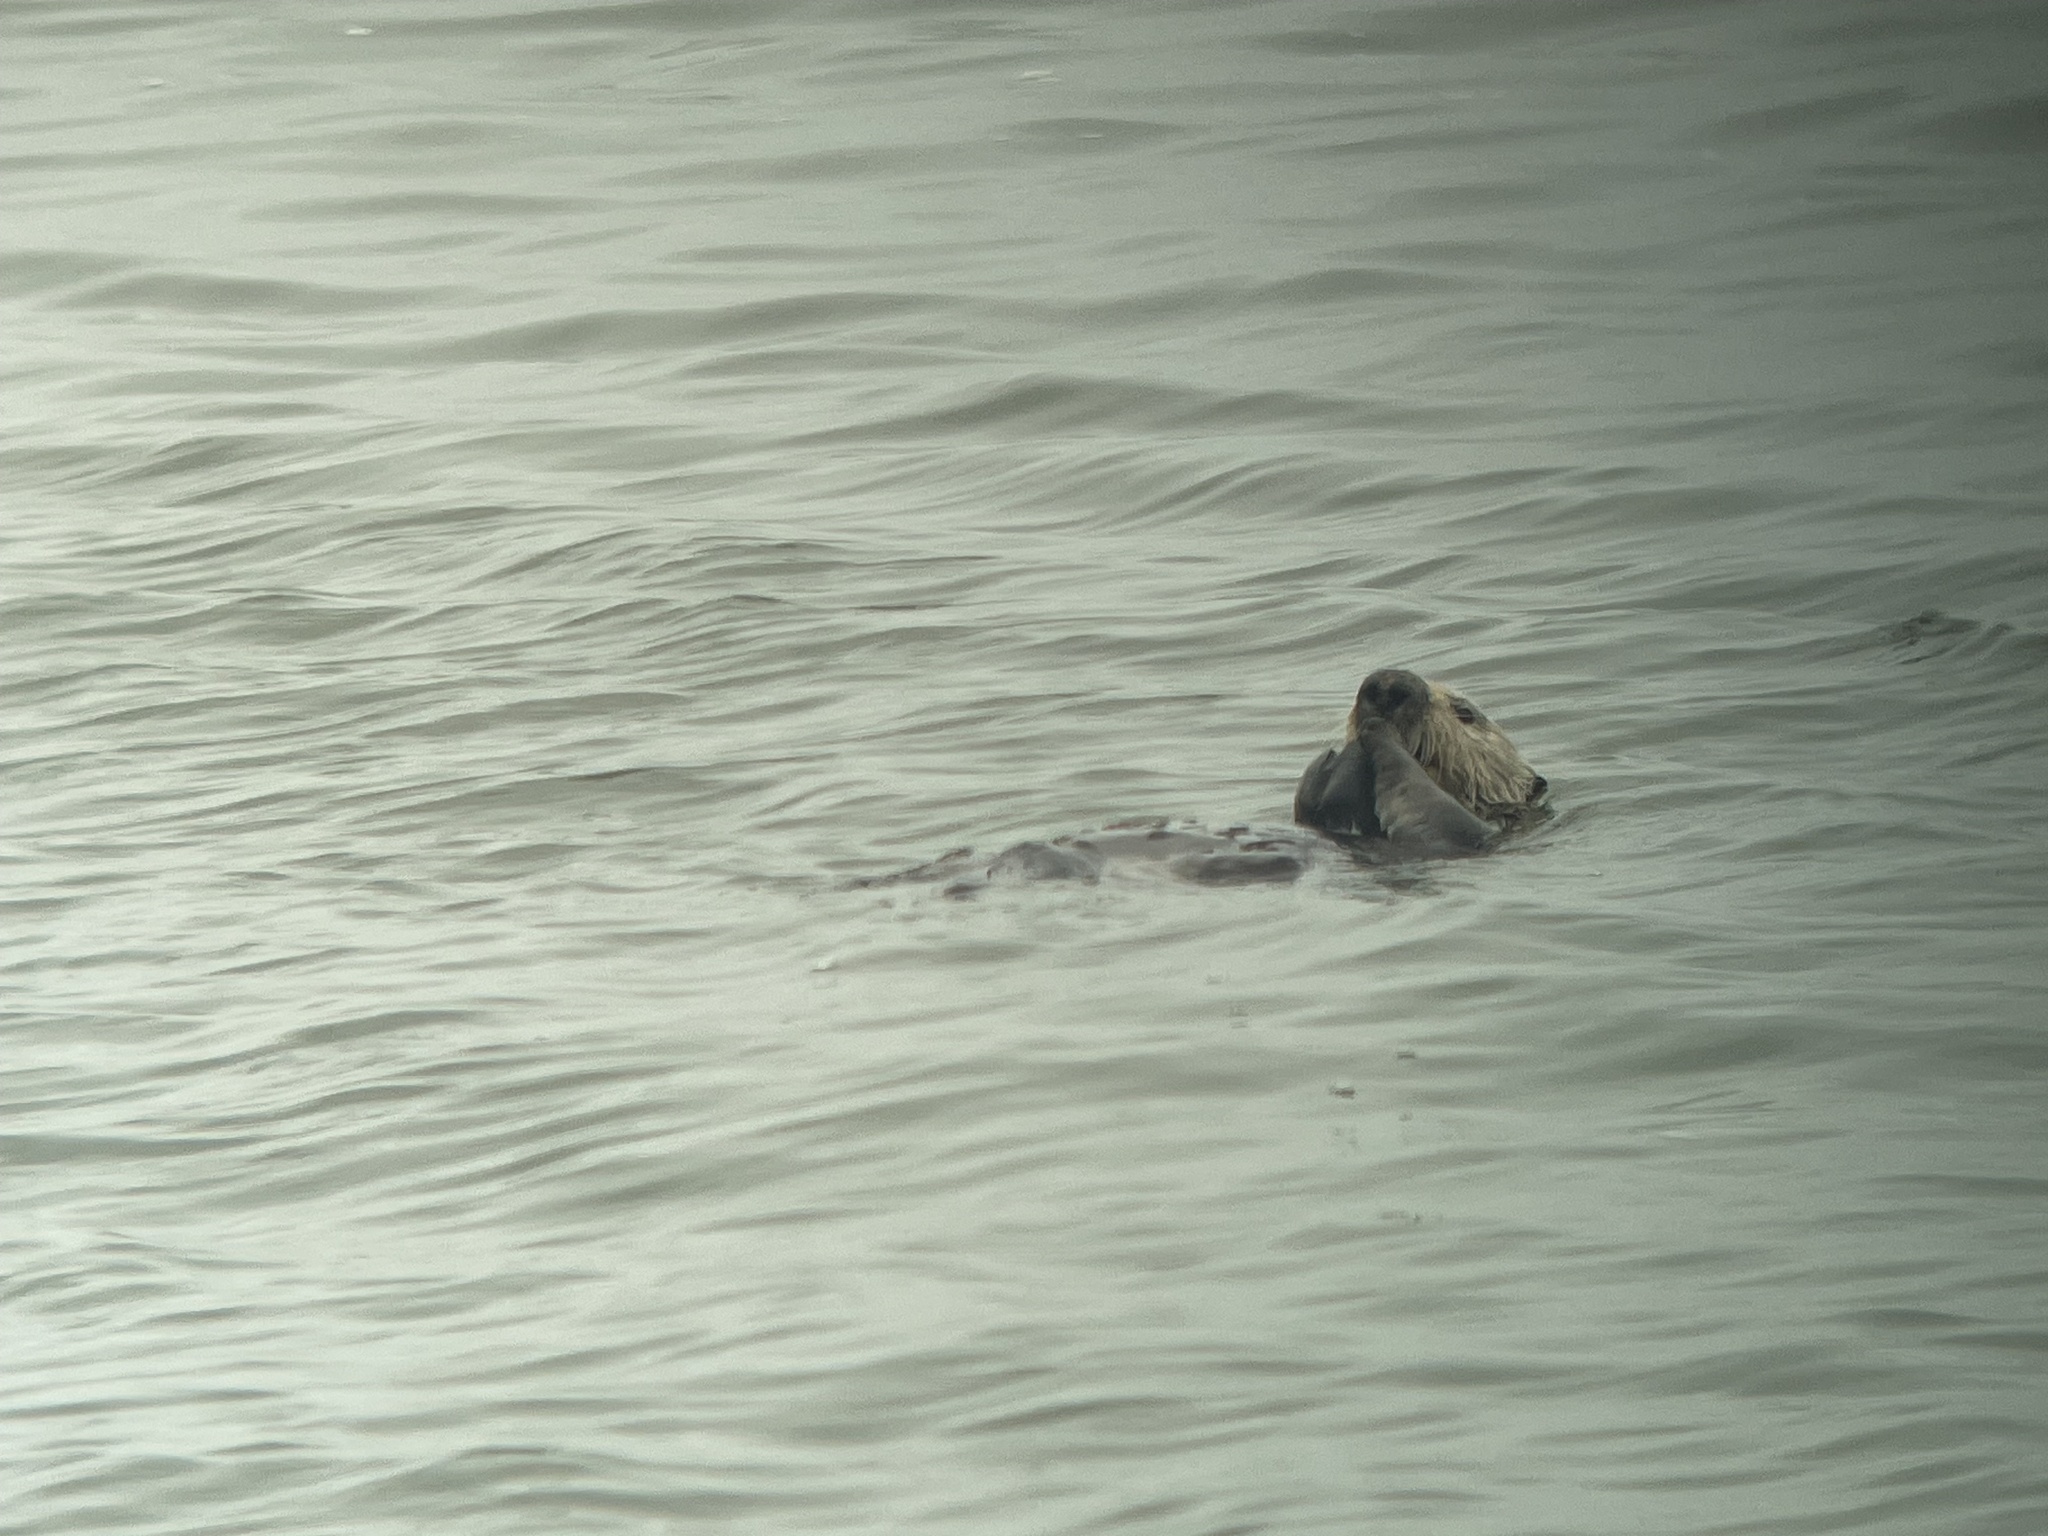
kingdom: Animalia
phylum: Chordata
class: Mammalia
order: Carnivora
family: Mustelidae
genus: Enhydra
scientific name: Enhydra lutris
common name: Sea otter
